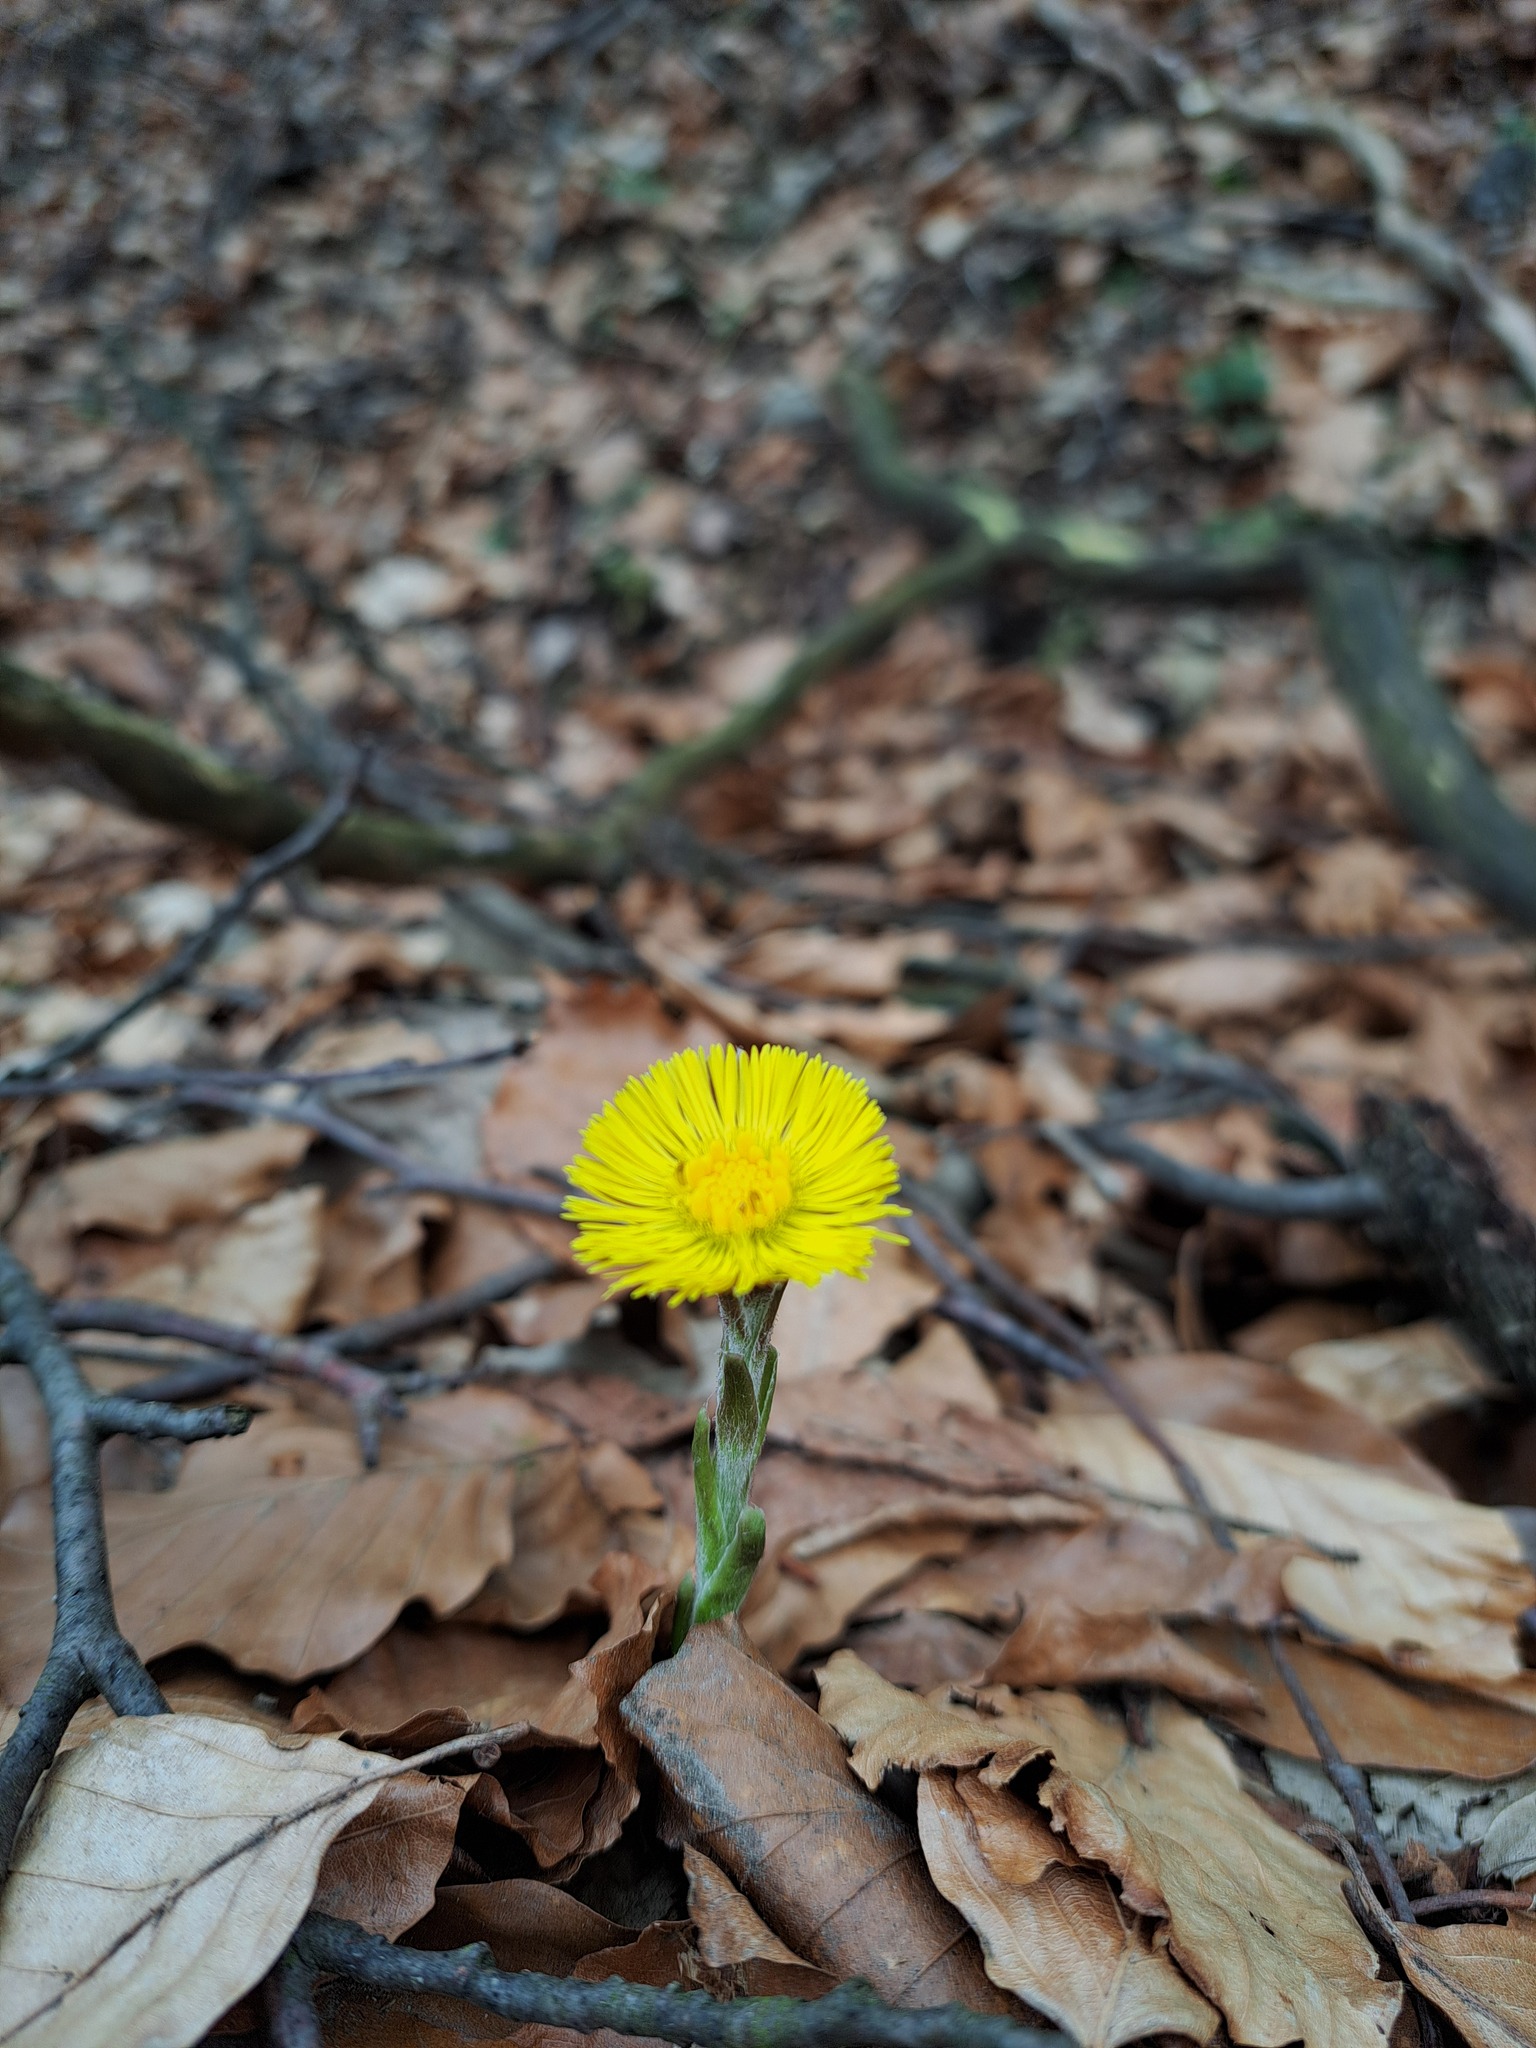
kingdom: Plantae
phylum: Tracheophyta
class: Magnoliopsida
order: Asterales
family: Asteraceae
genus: Tussilago
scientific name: Tussilago farfara
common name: Coltsfoot
